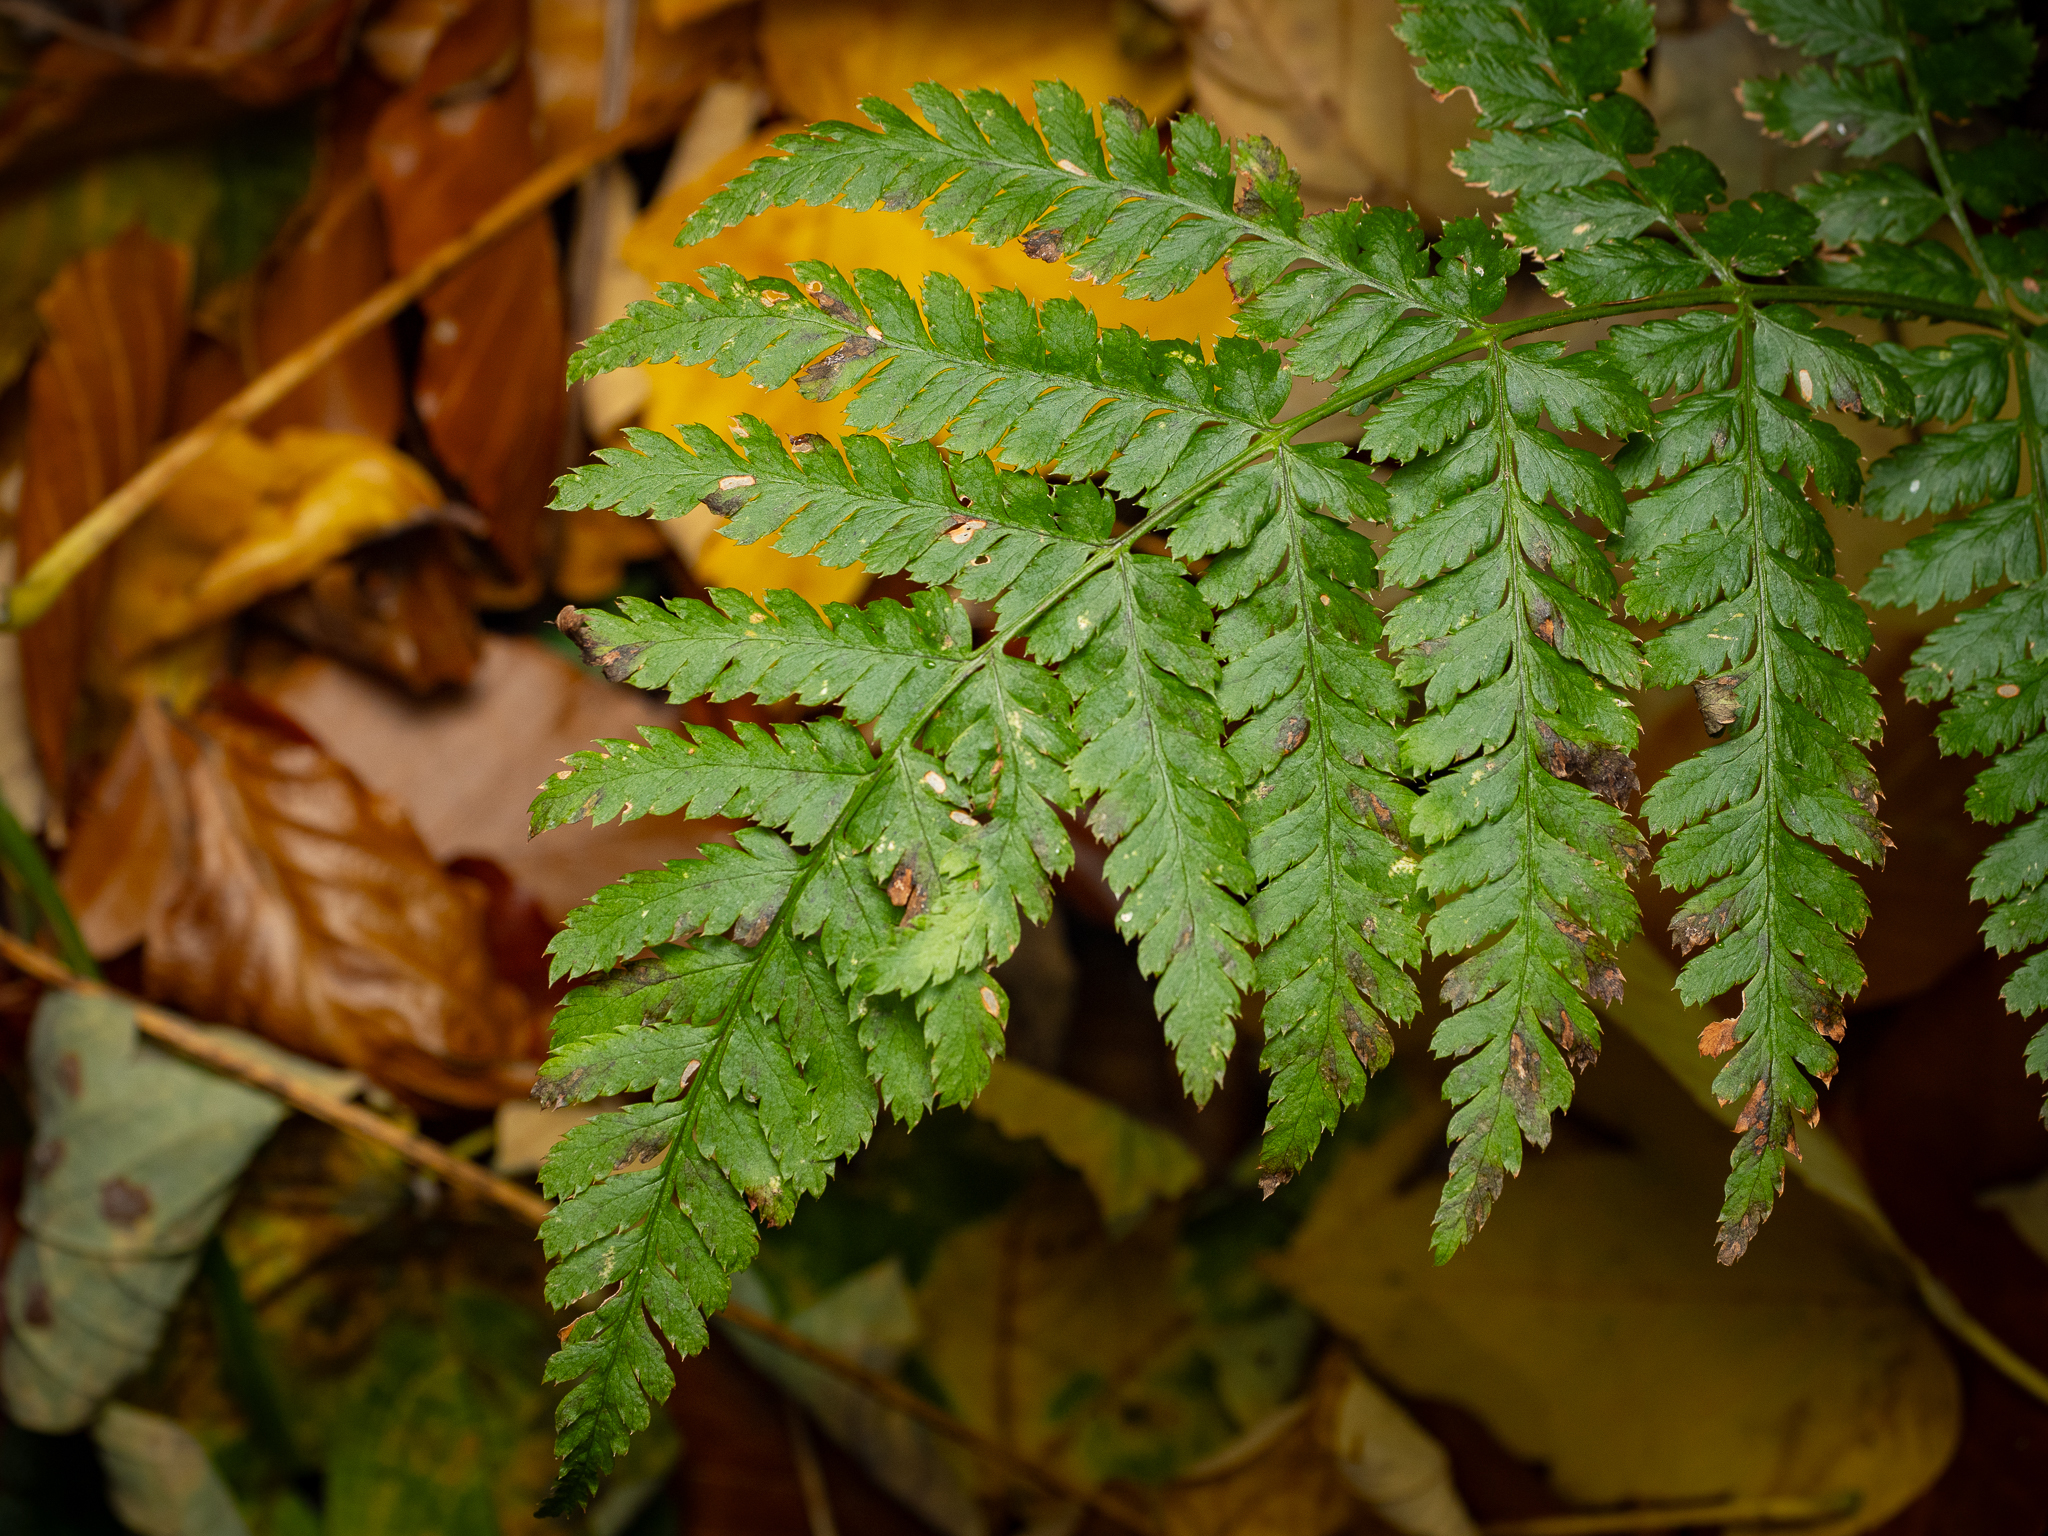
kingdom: Plantae
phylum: Tracheophyta
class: Polypodiopsida
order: Polypodiales
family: Dryopteridaceae
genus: Dryopteris
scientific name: Dryopteris dilatata
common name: Broad buckler-fern
